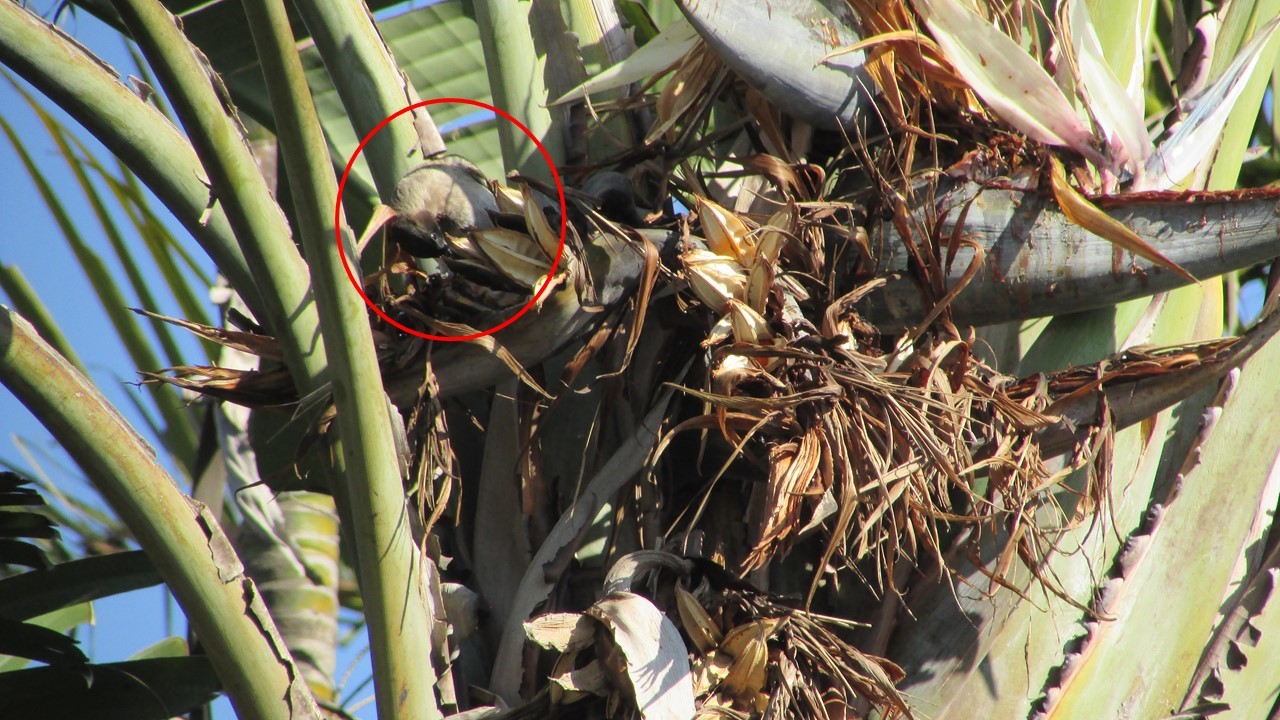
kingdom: Animalia
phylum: Chordata
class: Aves
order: Passeriformes
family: Pycnonotidae
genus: Pycnonotus
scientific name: Pycnonotus barbatus
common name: Common bulbul
